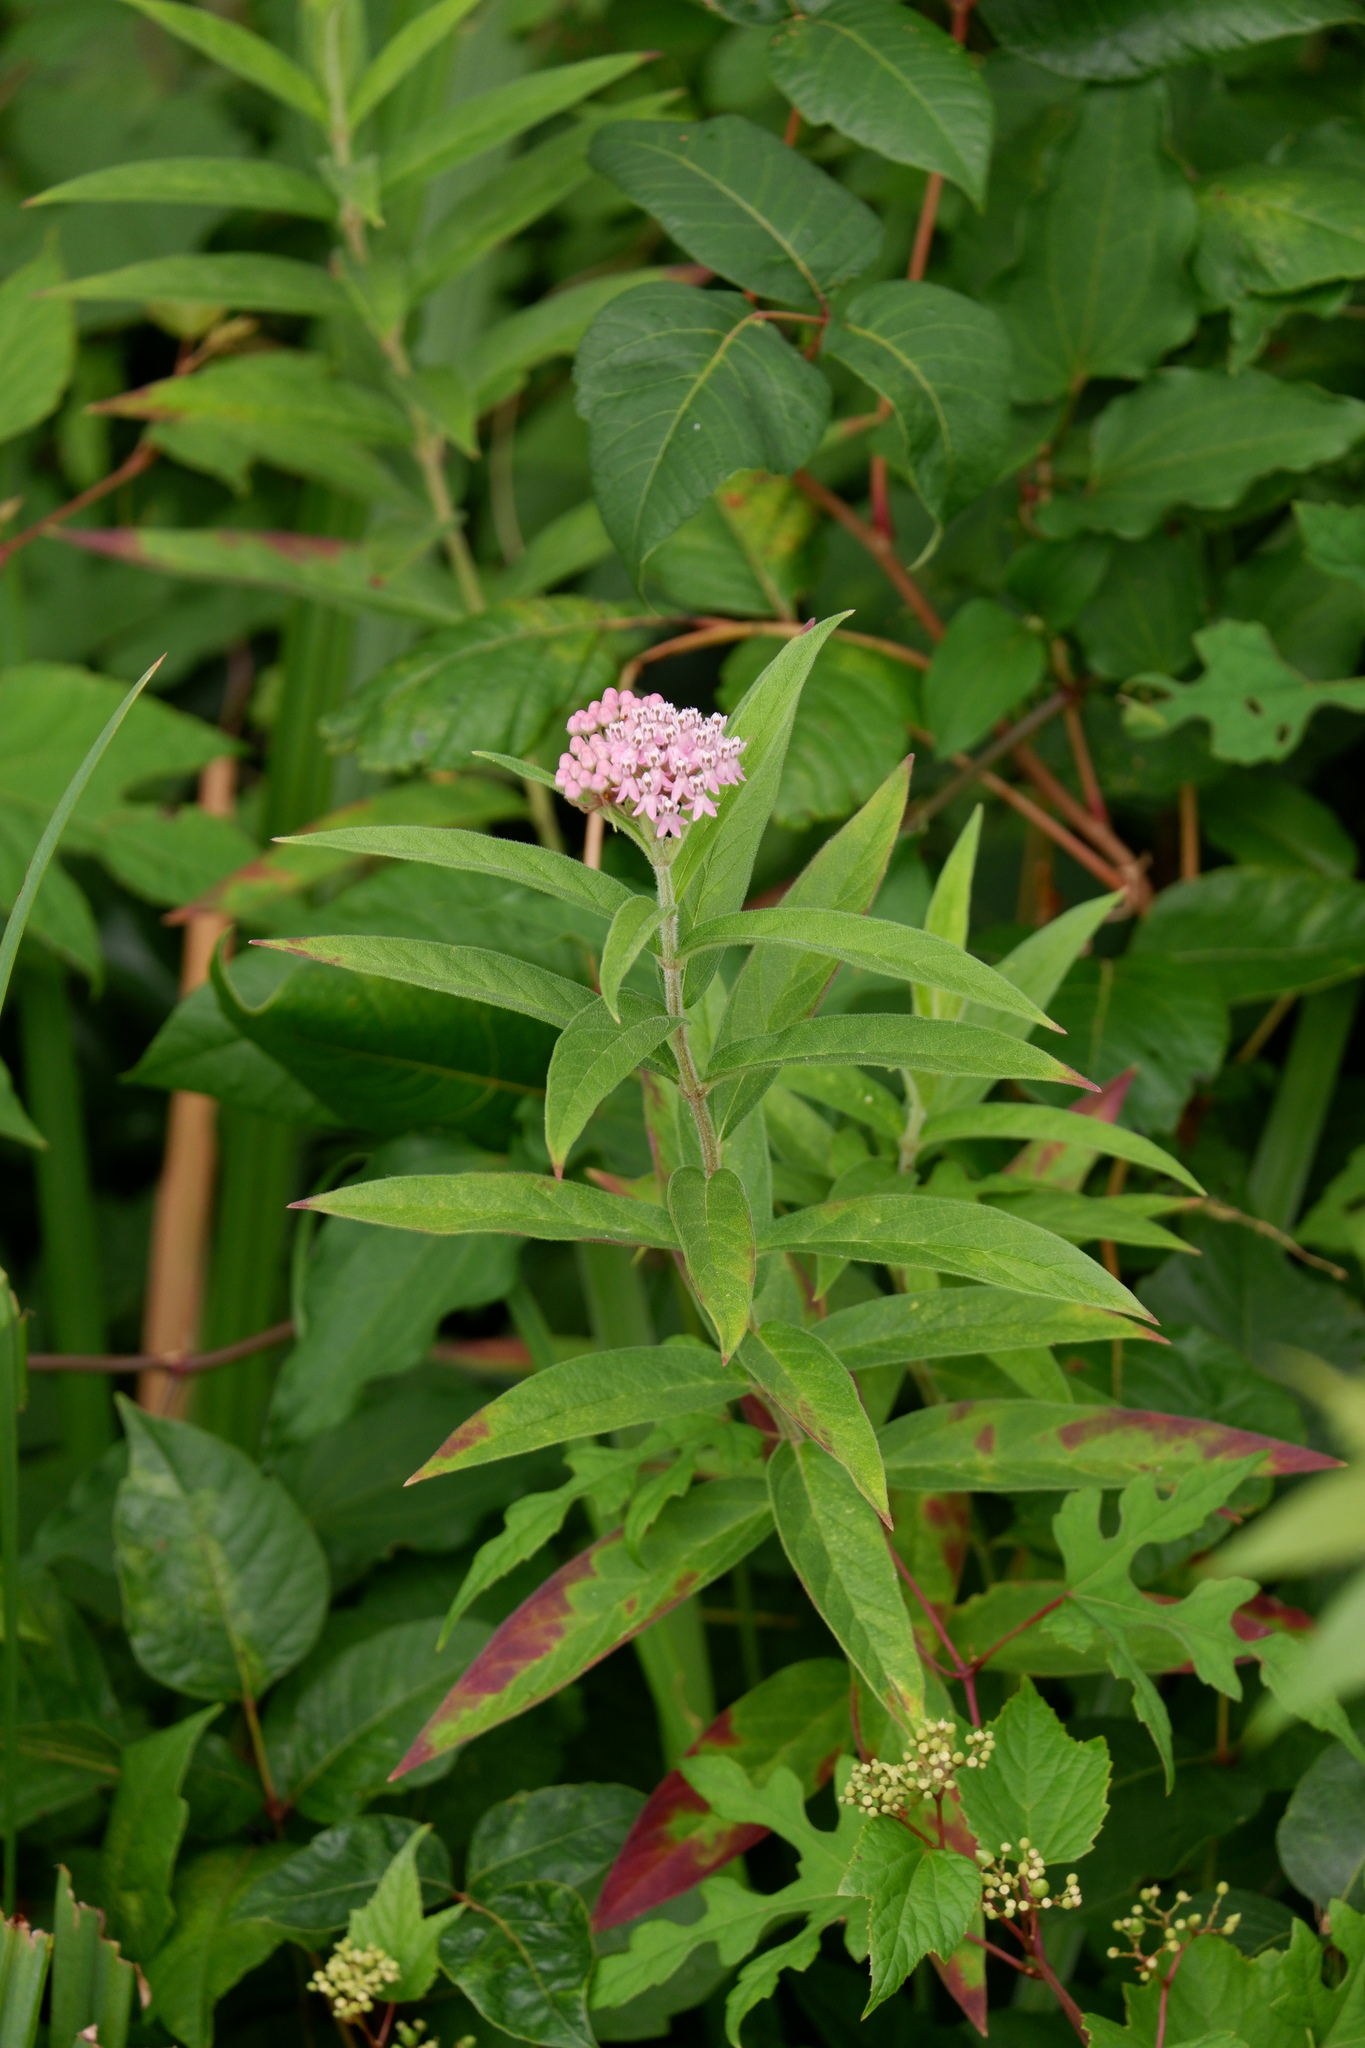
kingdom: Plantae
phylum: Tracheophyta
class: Magnoliopsida
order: Gentianales
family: Apocynaceae
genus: Asclepias
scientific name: Asclepias incarnata
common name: Swamp milkweed
